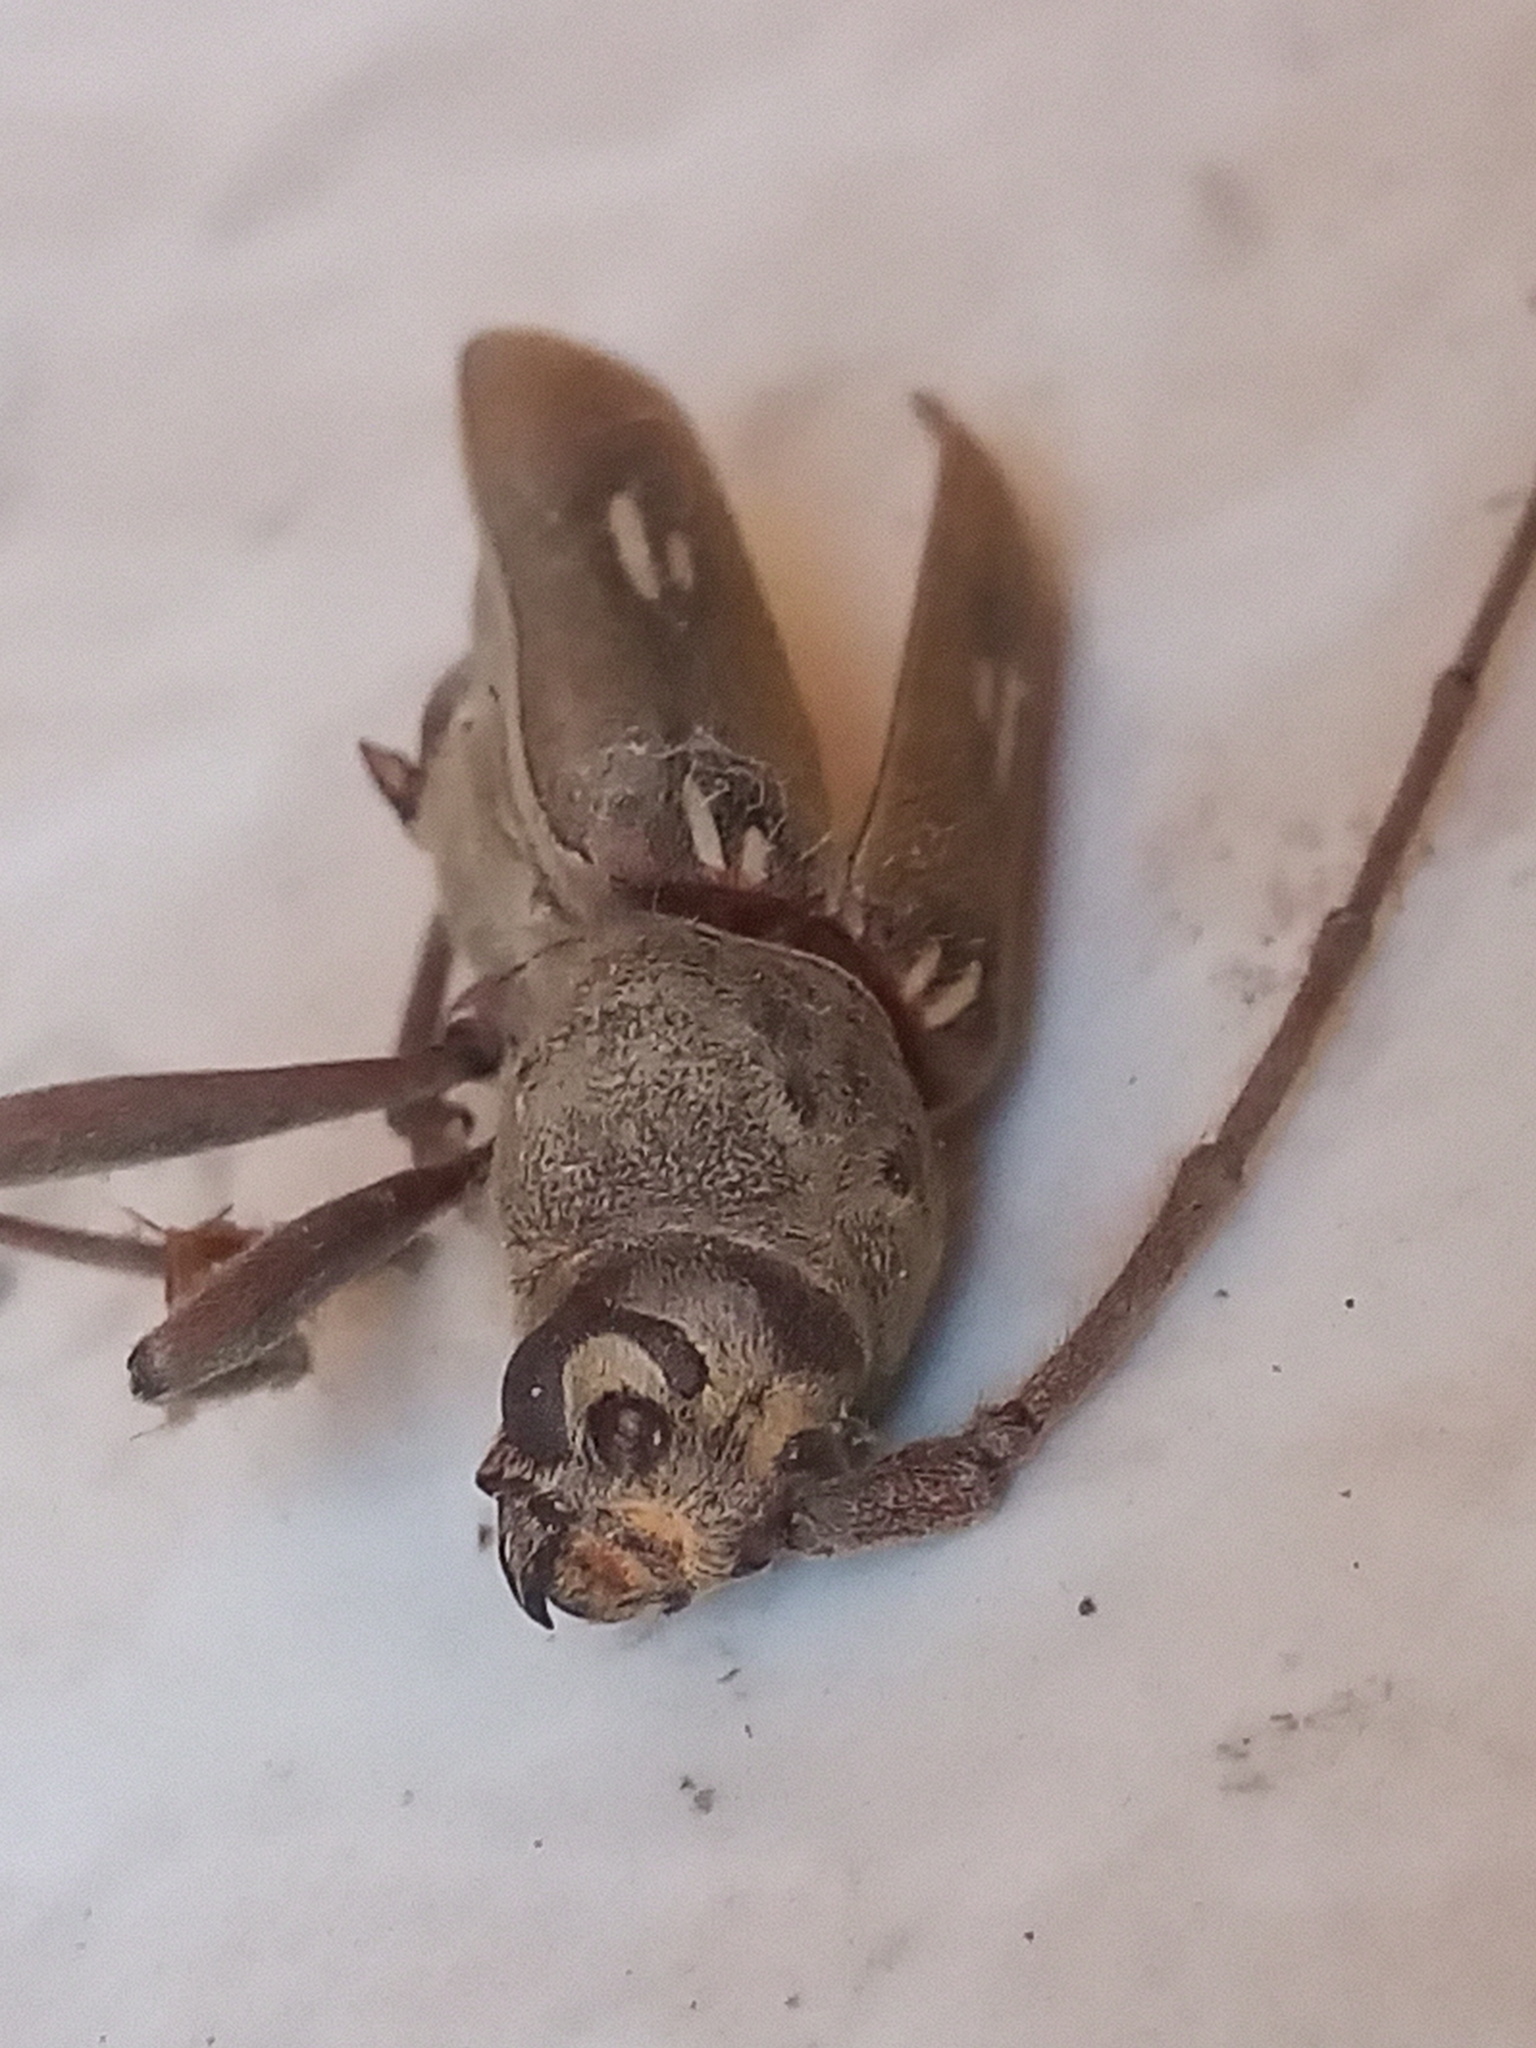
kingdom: Animalia
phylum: Arthropoda
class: Insecta
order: Coleoptera
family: Cerambycidae
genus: Eburia
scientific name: Eburia ovicollis
